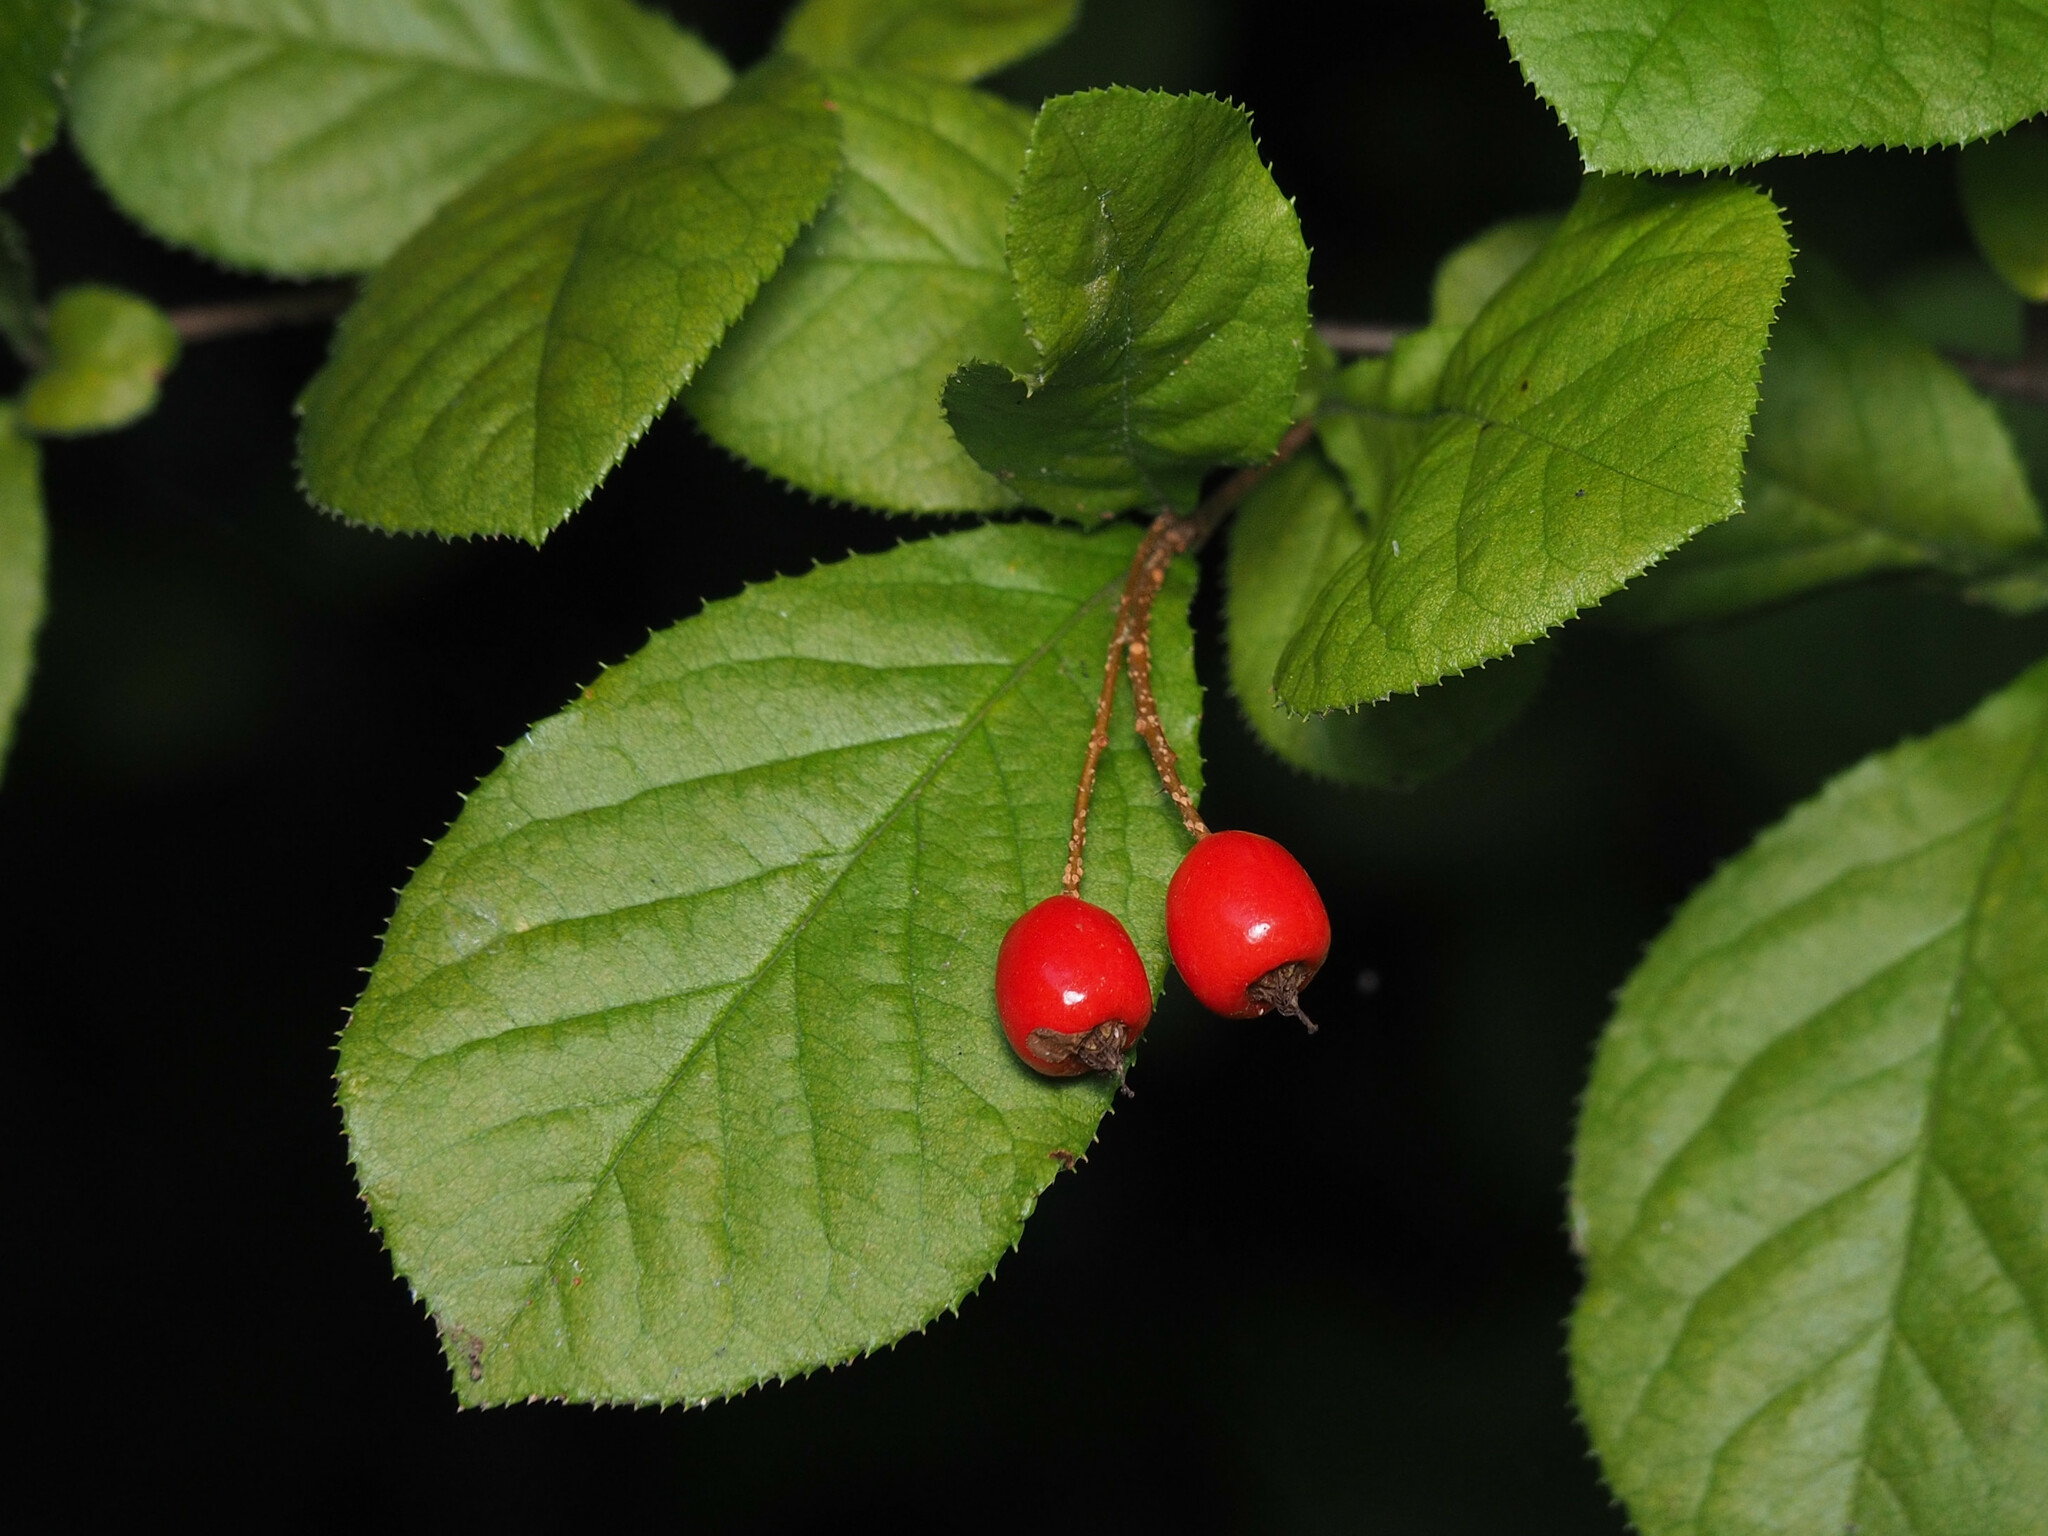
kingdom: Plantae
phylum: Tracheophyta
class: Magnoliopsida
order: Rosales
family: Rosaceae
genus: Pourthiaea
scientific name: Pourthiaea villosa
